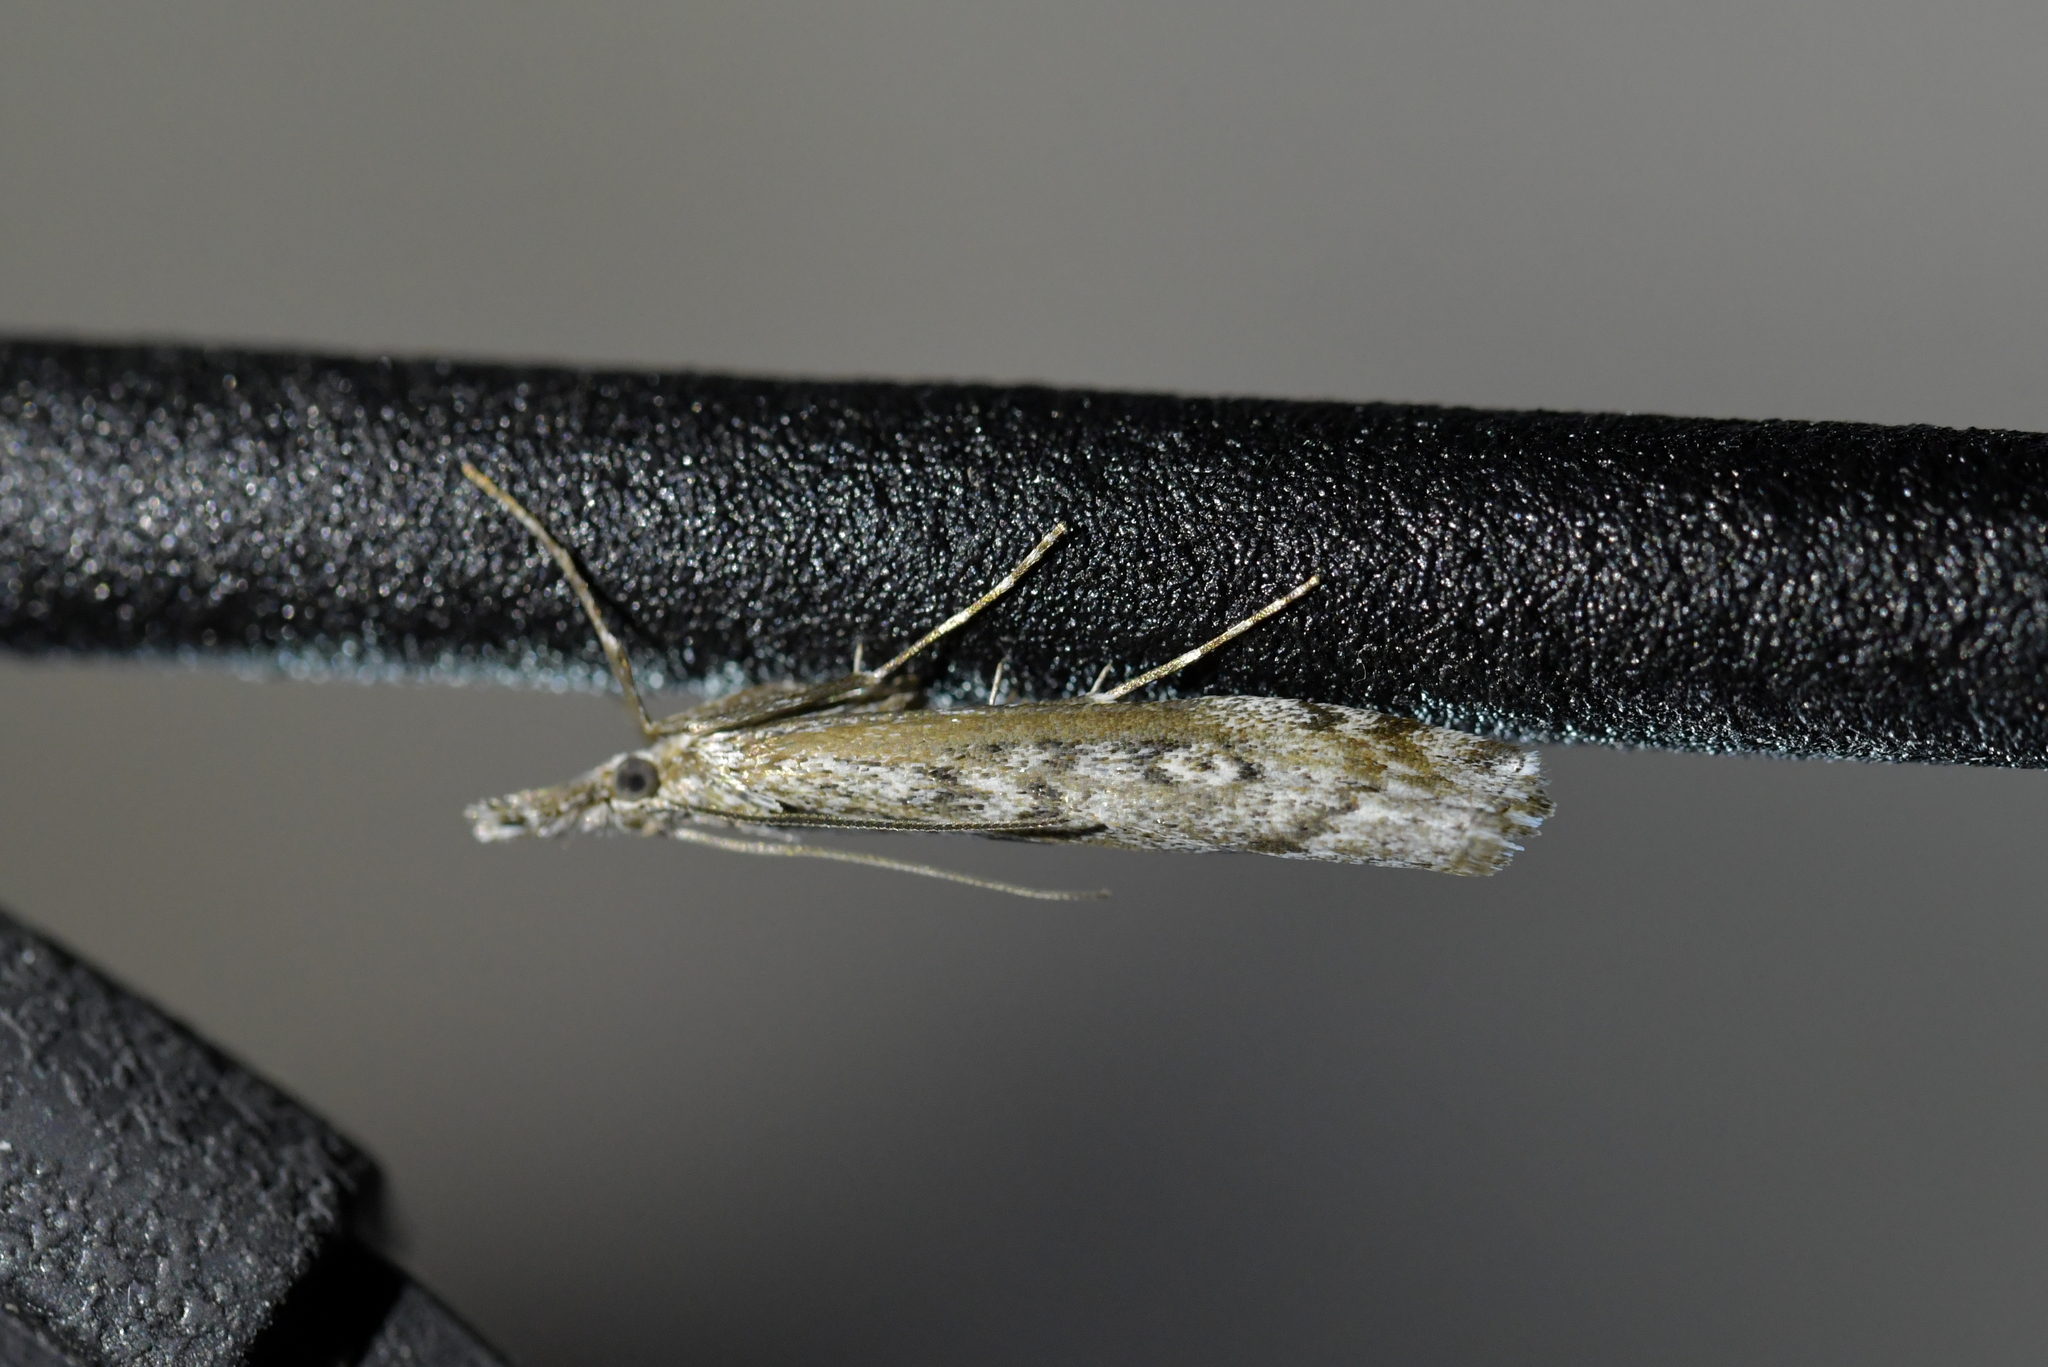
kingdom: Animalia
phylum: Arthropoda
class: Insecta
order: Lepidoptera
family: Crambidae
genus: Orocrambus
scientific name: Orocrambus cyclopicus
